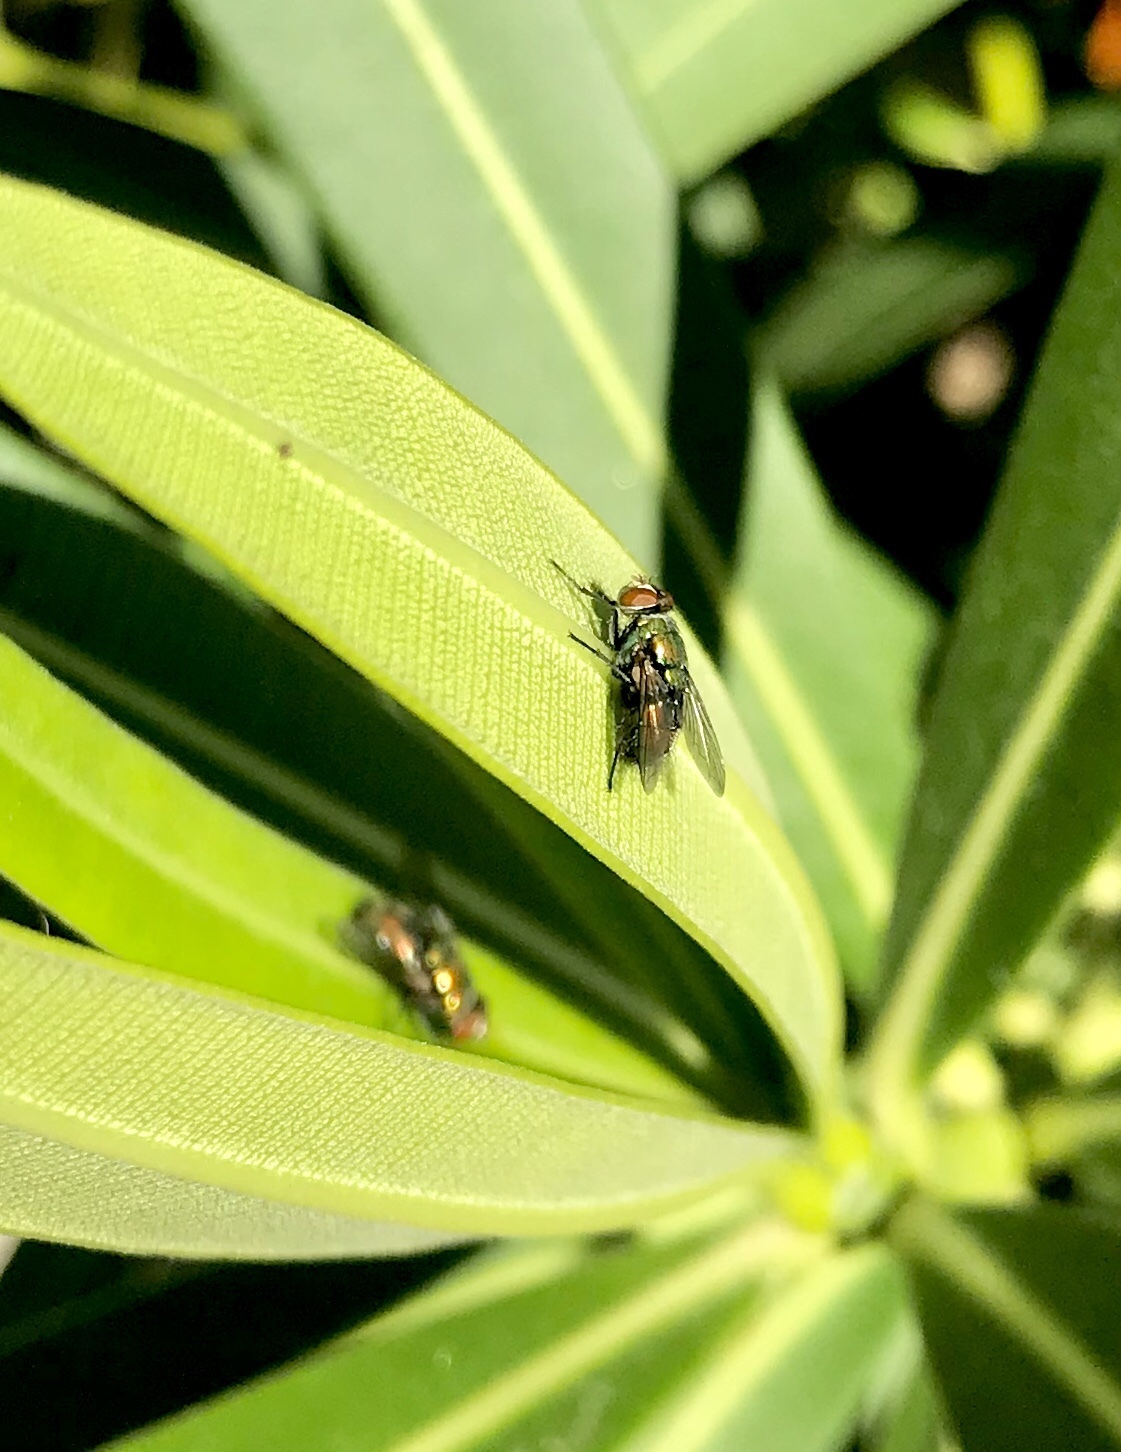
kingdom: Animalia
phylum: Arthropoda
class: Insecta
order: Diptera
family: Calliphoridae
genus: Lucilia
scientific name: Lucilia cuprina
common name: Sheep blow fly
